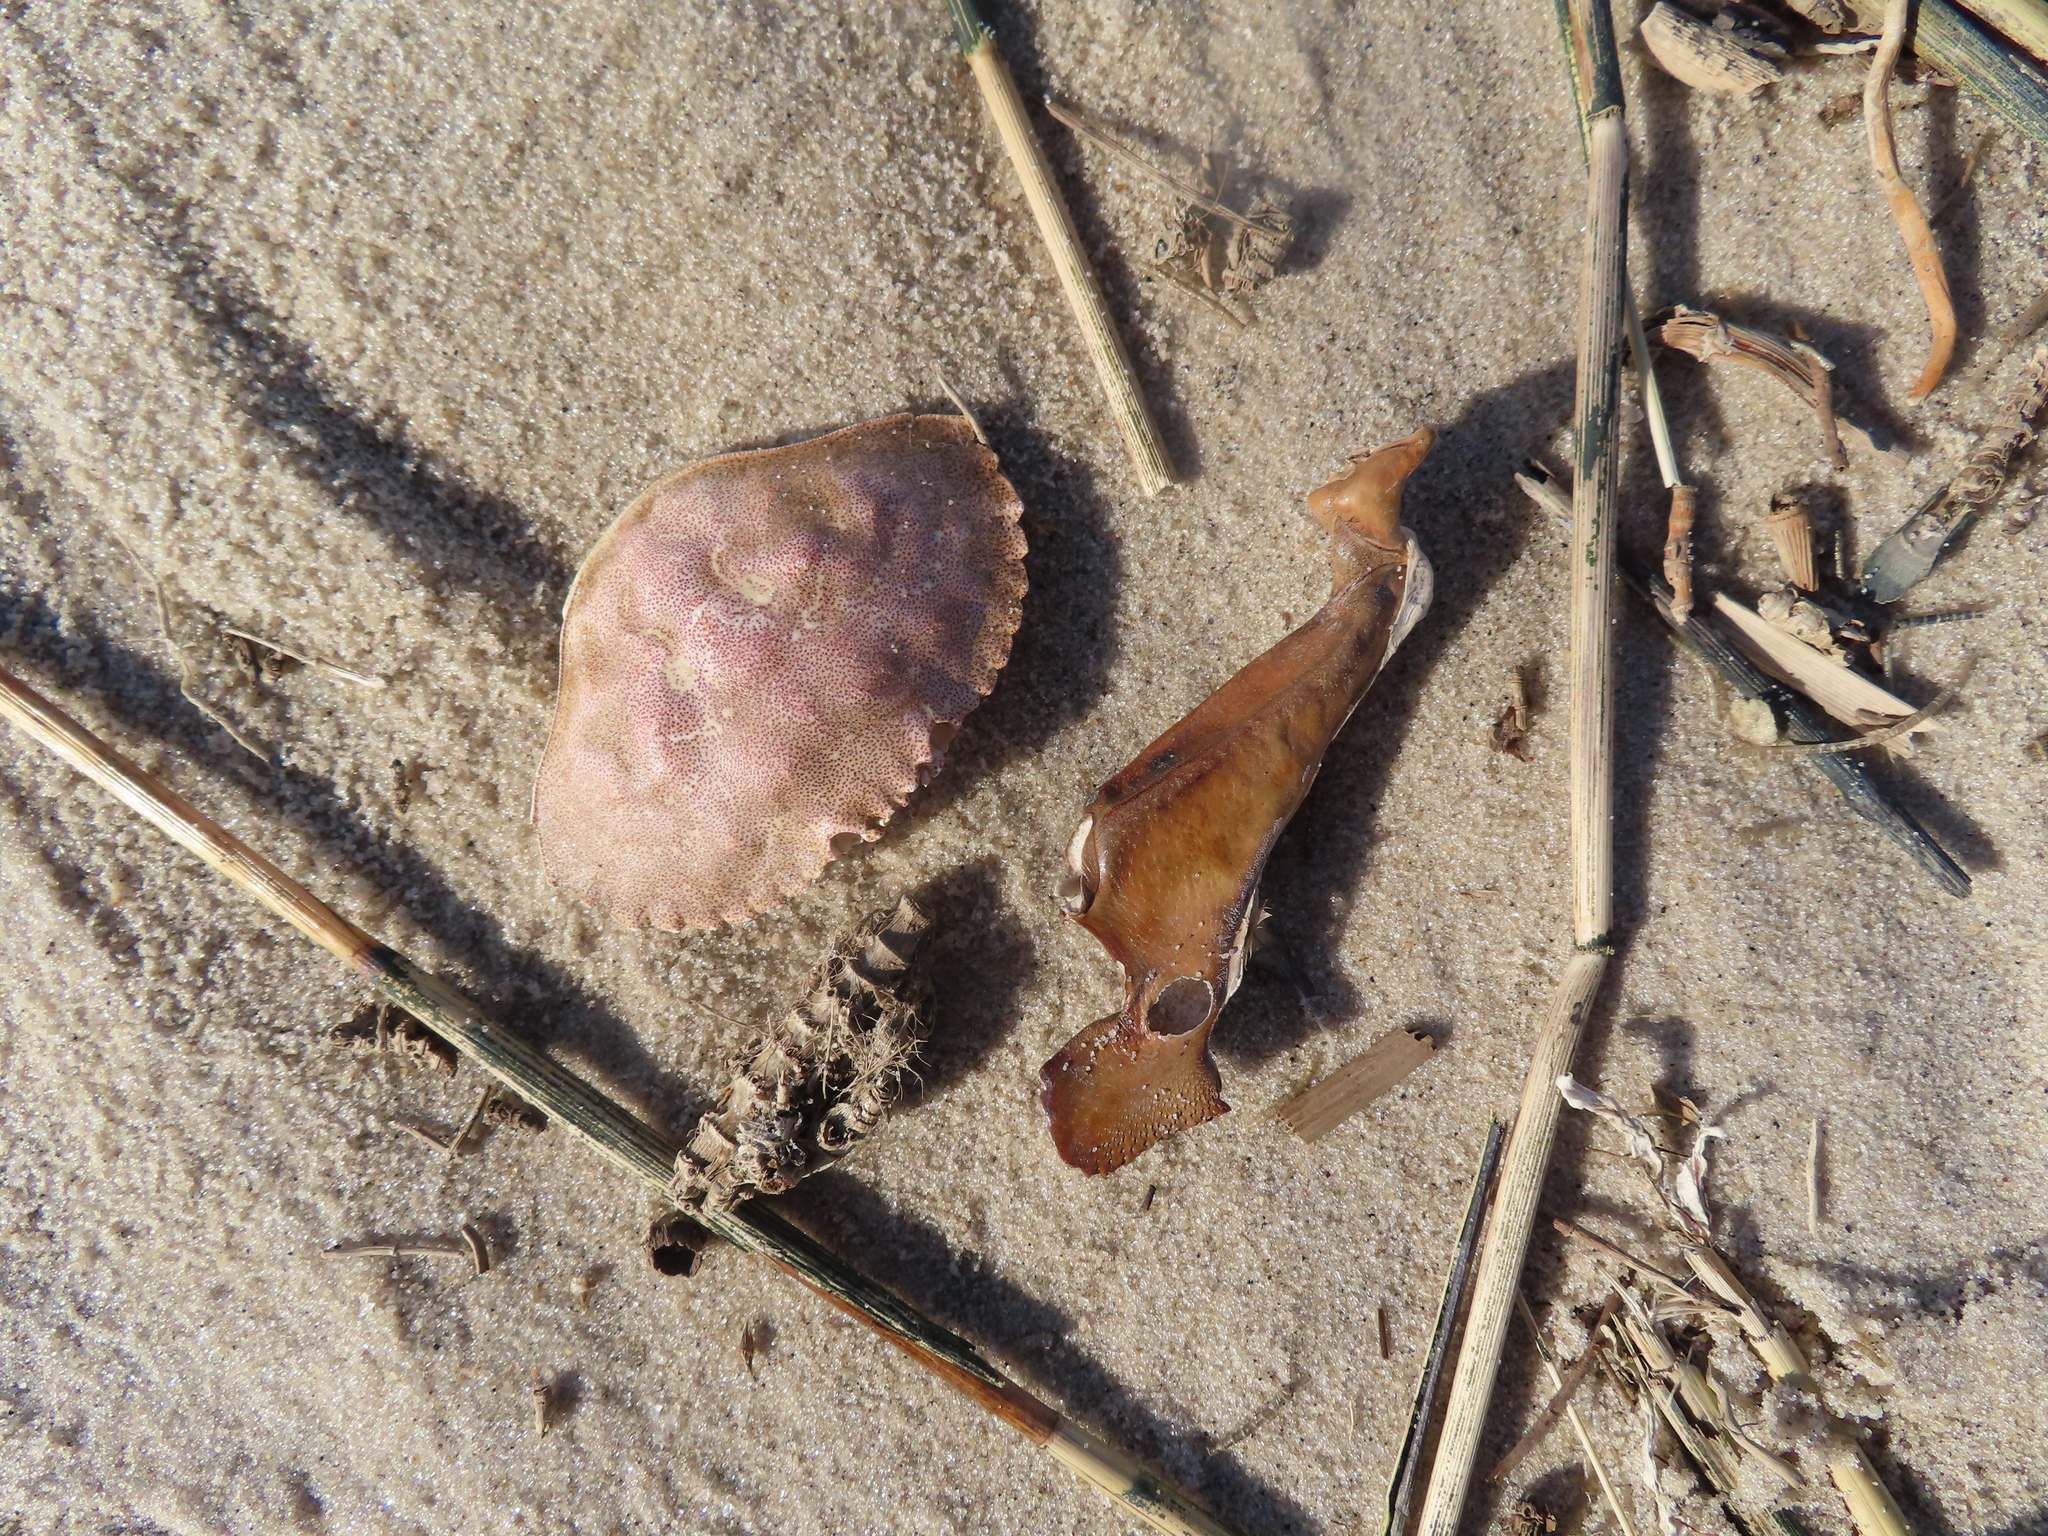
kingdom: Animalia
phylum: Arthropoda
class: Malacostraca
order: Decapoda
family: Cancridae
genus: Cancer
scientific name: Cancer irroratus
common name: Atlantic rock crab
